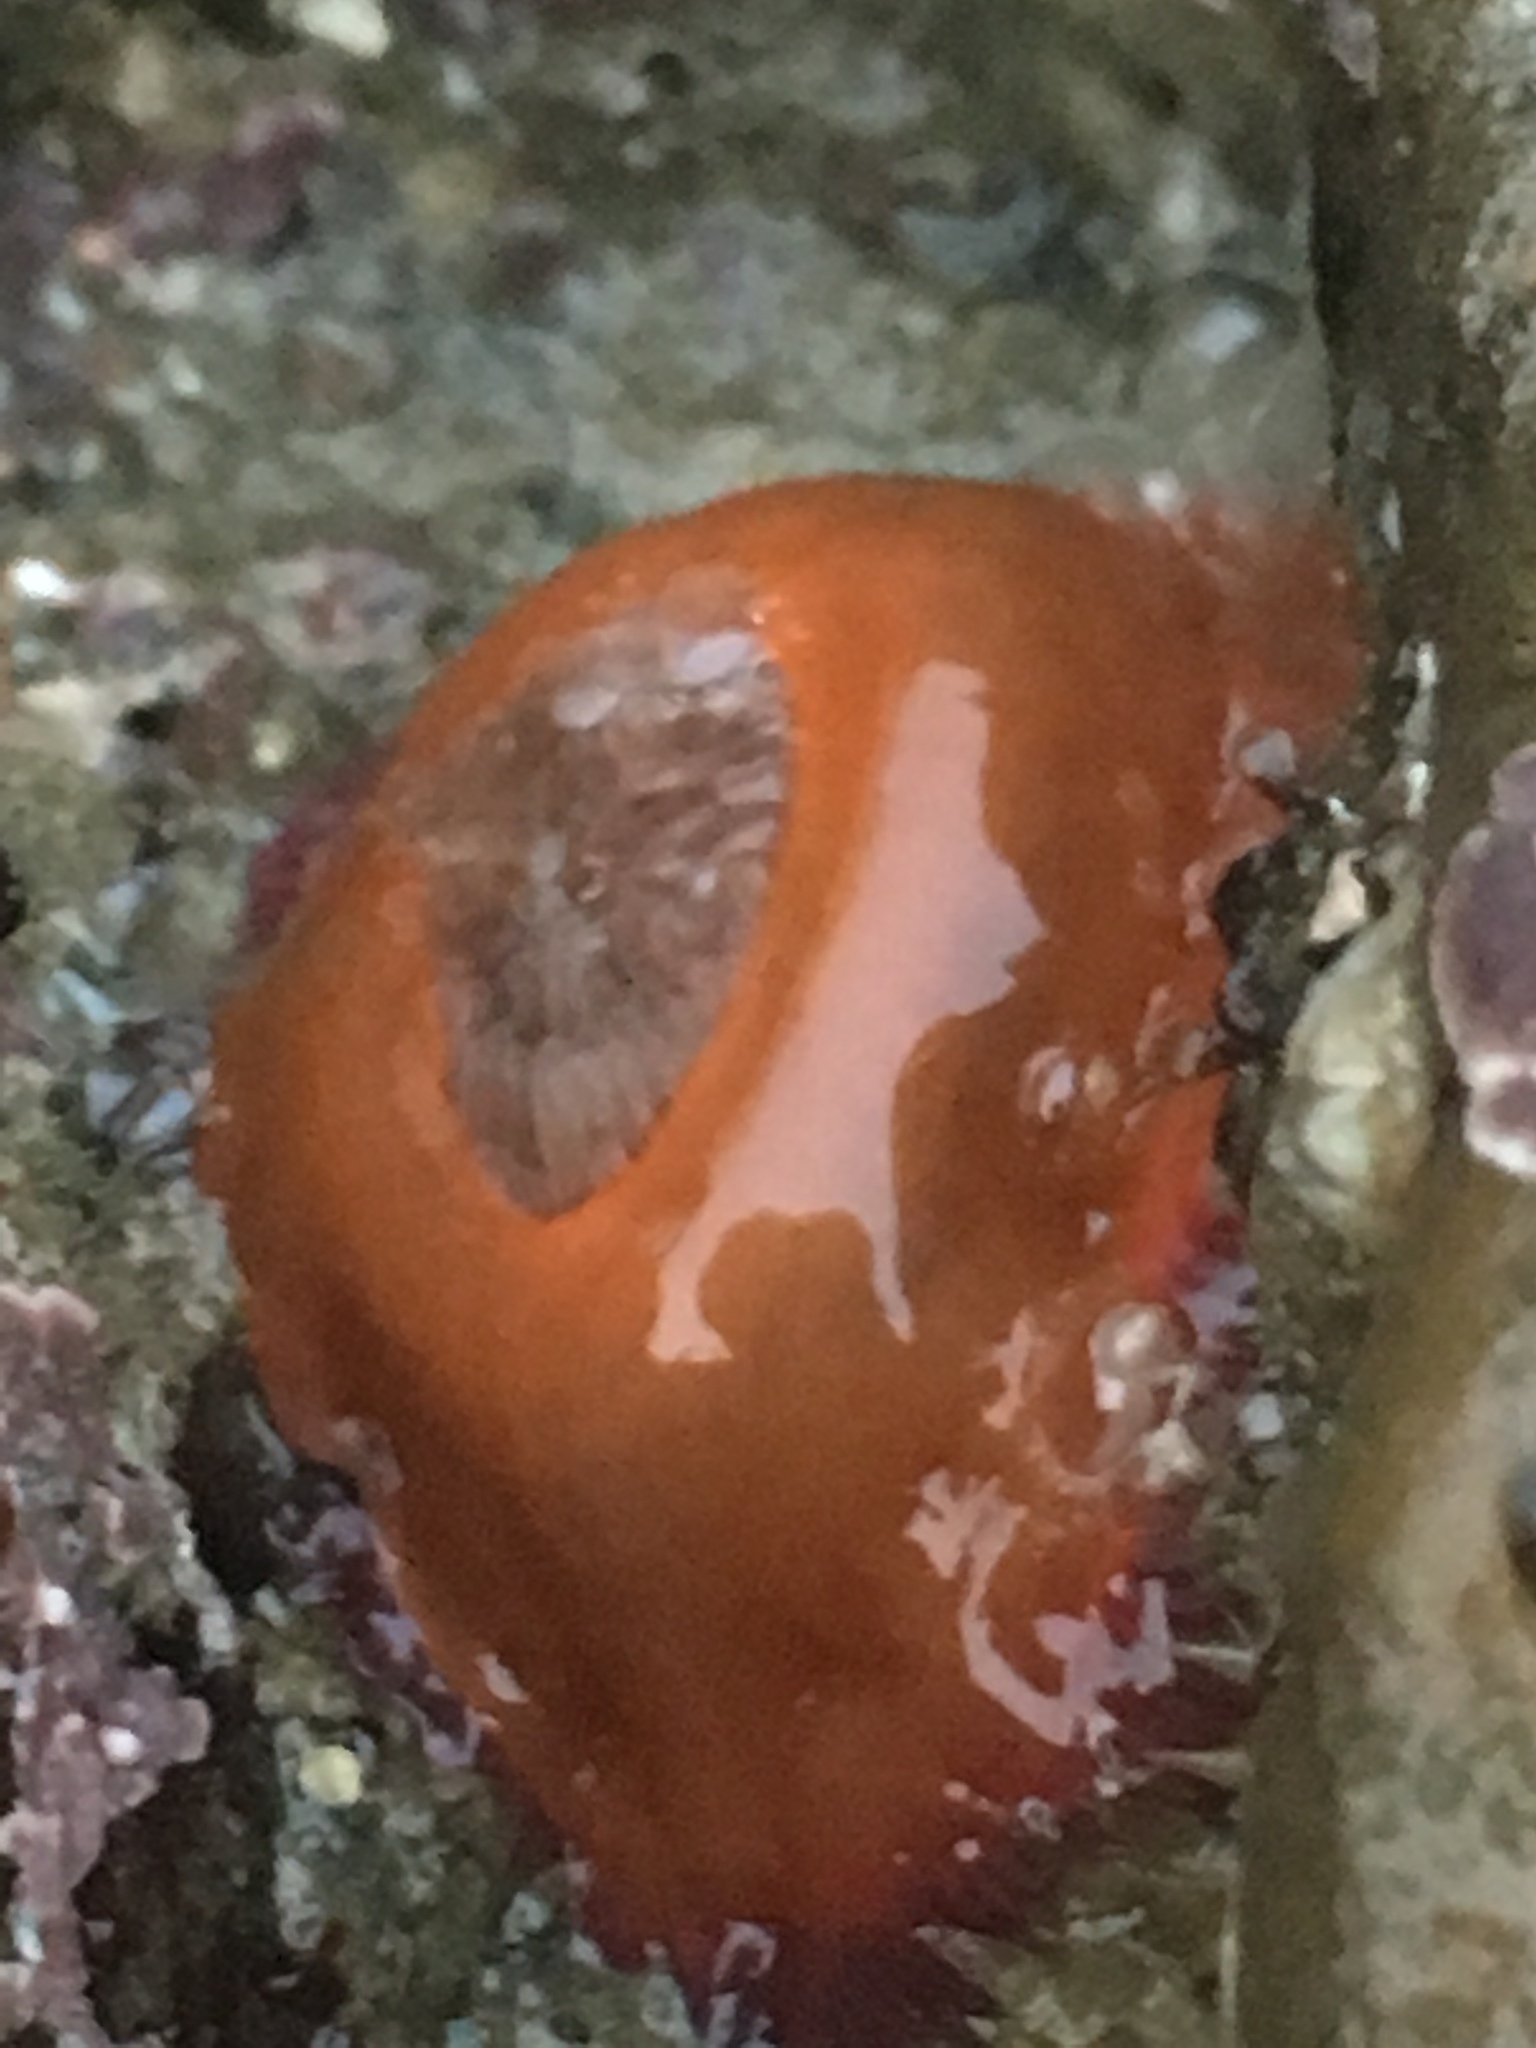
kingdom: Animalia
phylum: Cnidaria
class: Anthozoa
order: Actiniaria
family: Actiniidae
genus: Epiactis
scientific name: Epiactis prolifera
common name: Brooding anemone
